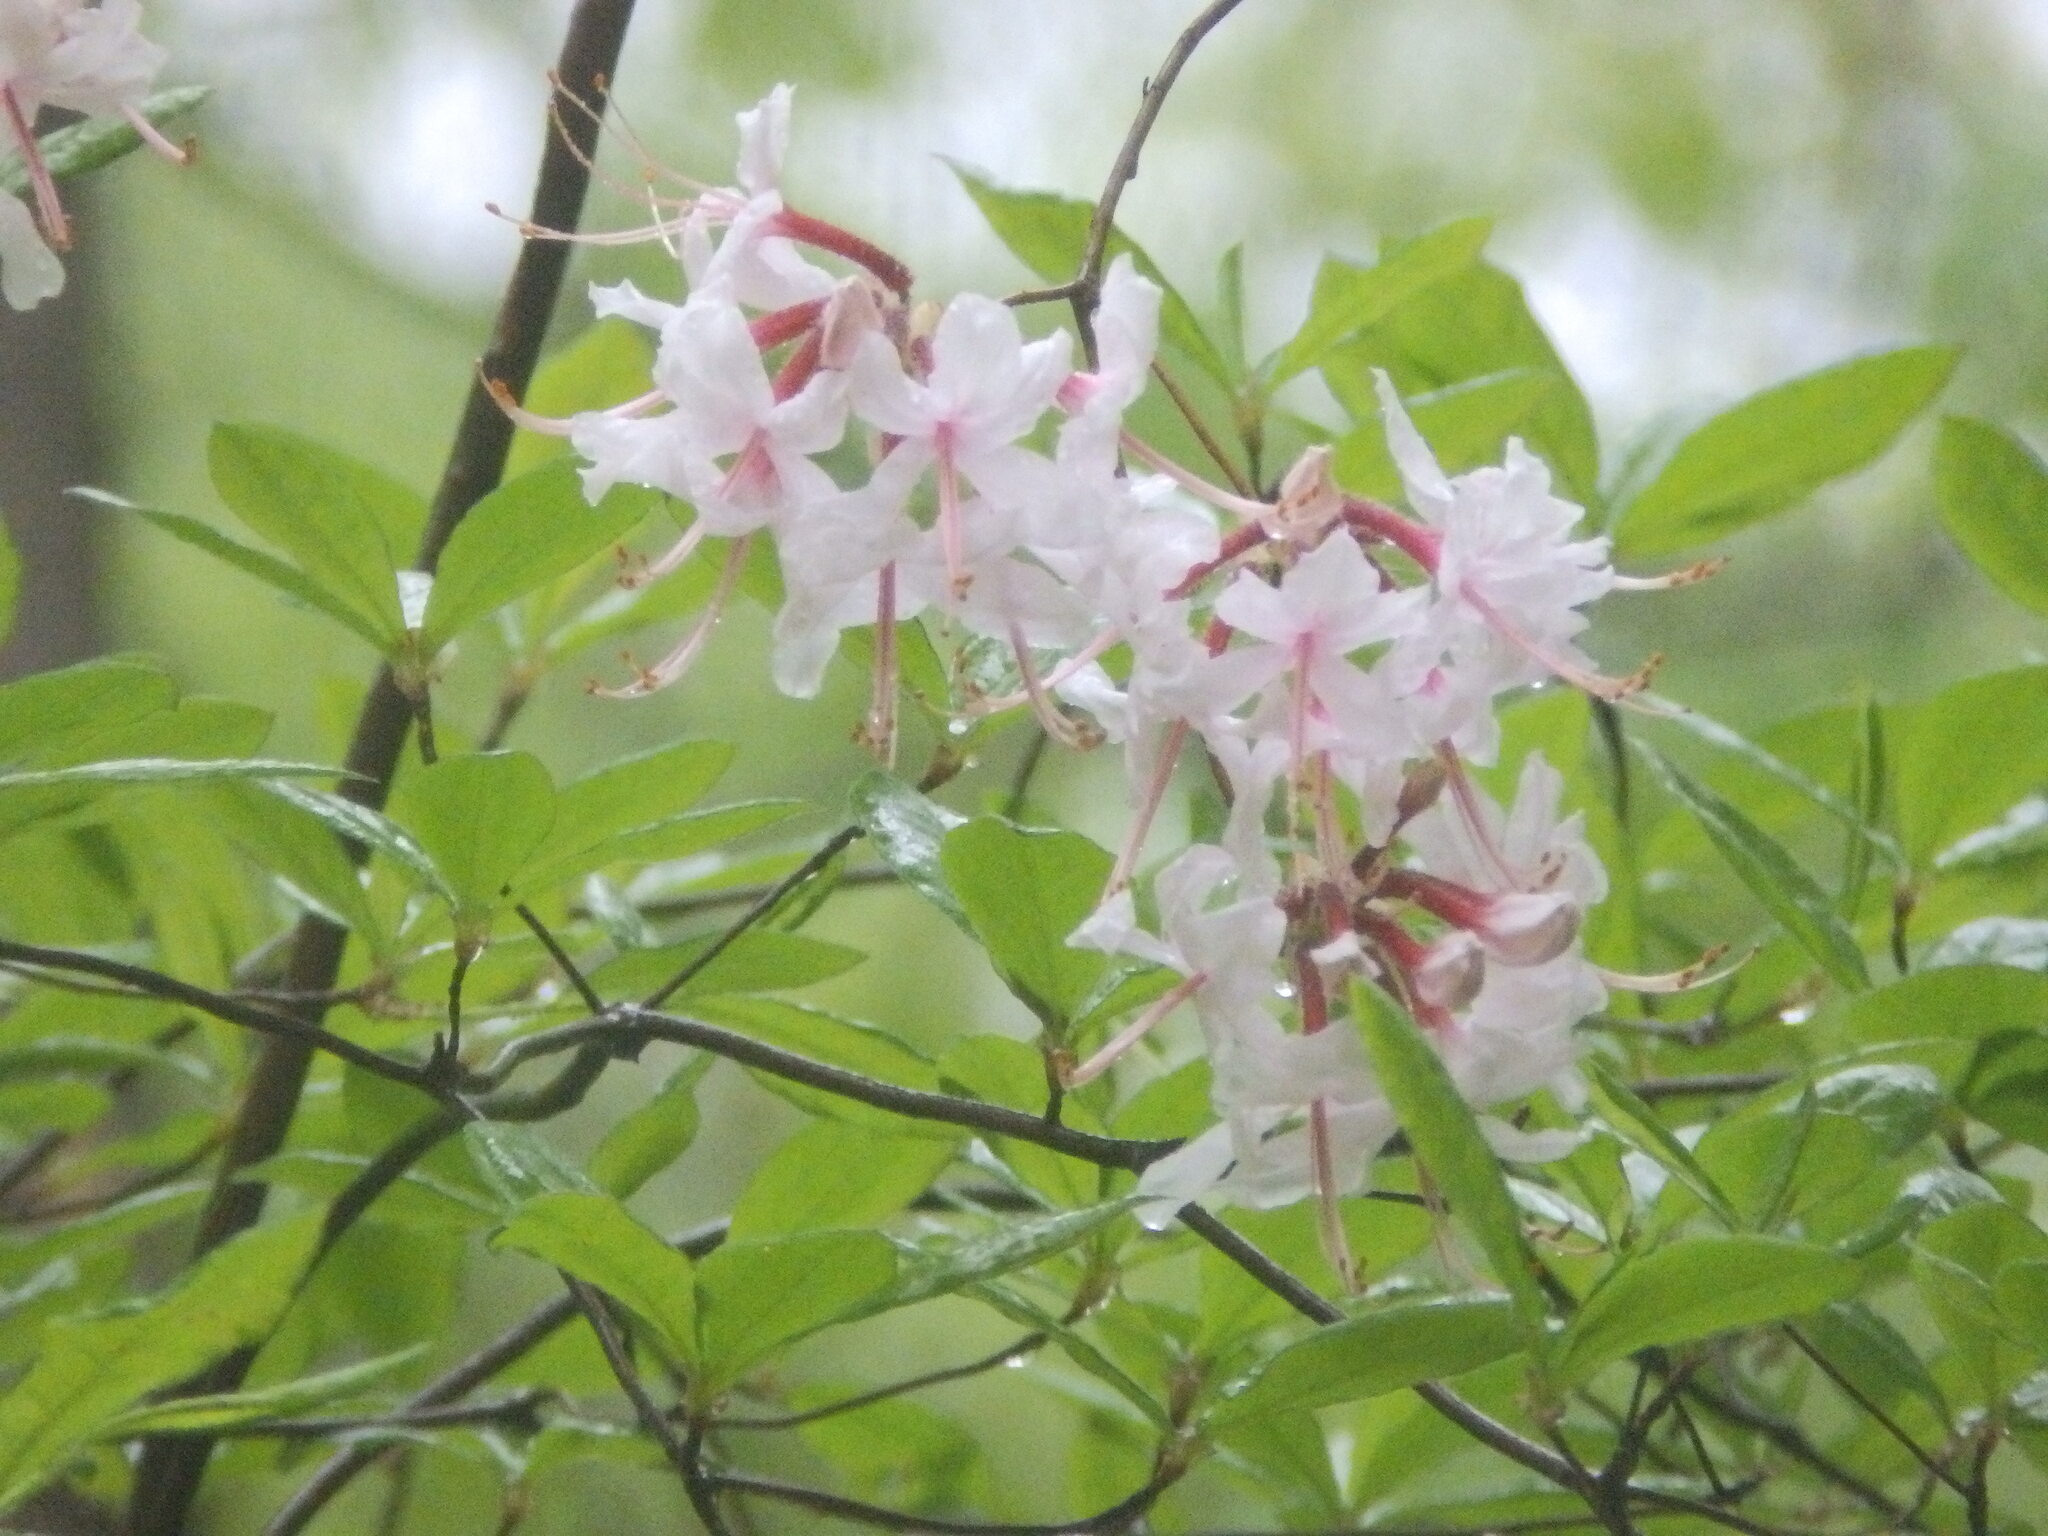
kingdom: Plantae
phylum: Tracheophyta
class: Magnoliopsida
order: Ericales
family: Ericaceae
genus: Rhododendron
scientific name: Rhododendron periclymenoides
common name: Election-pink
